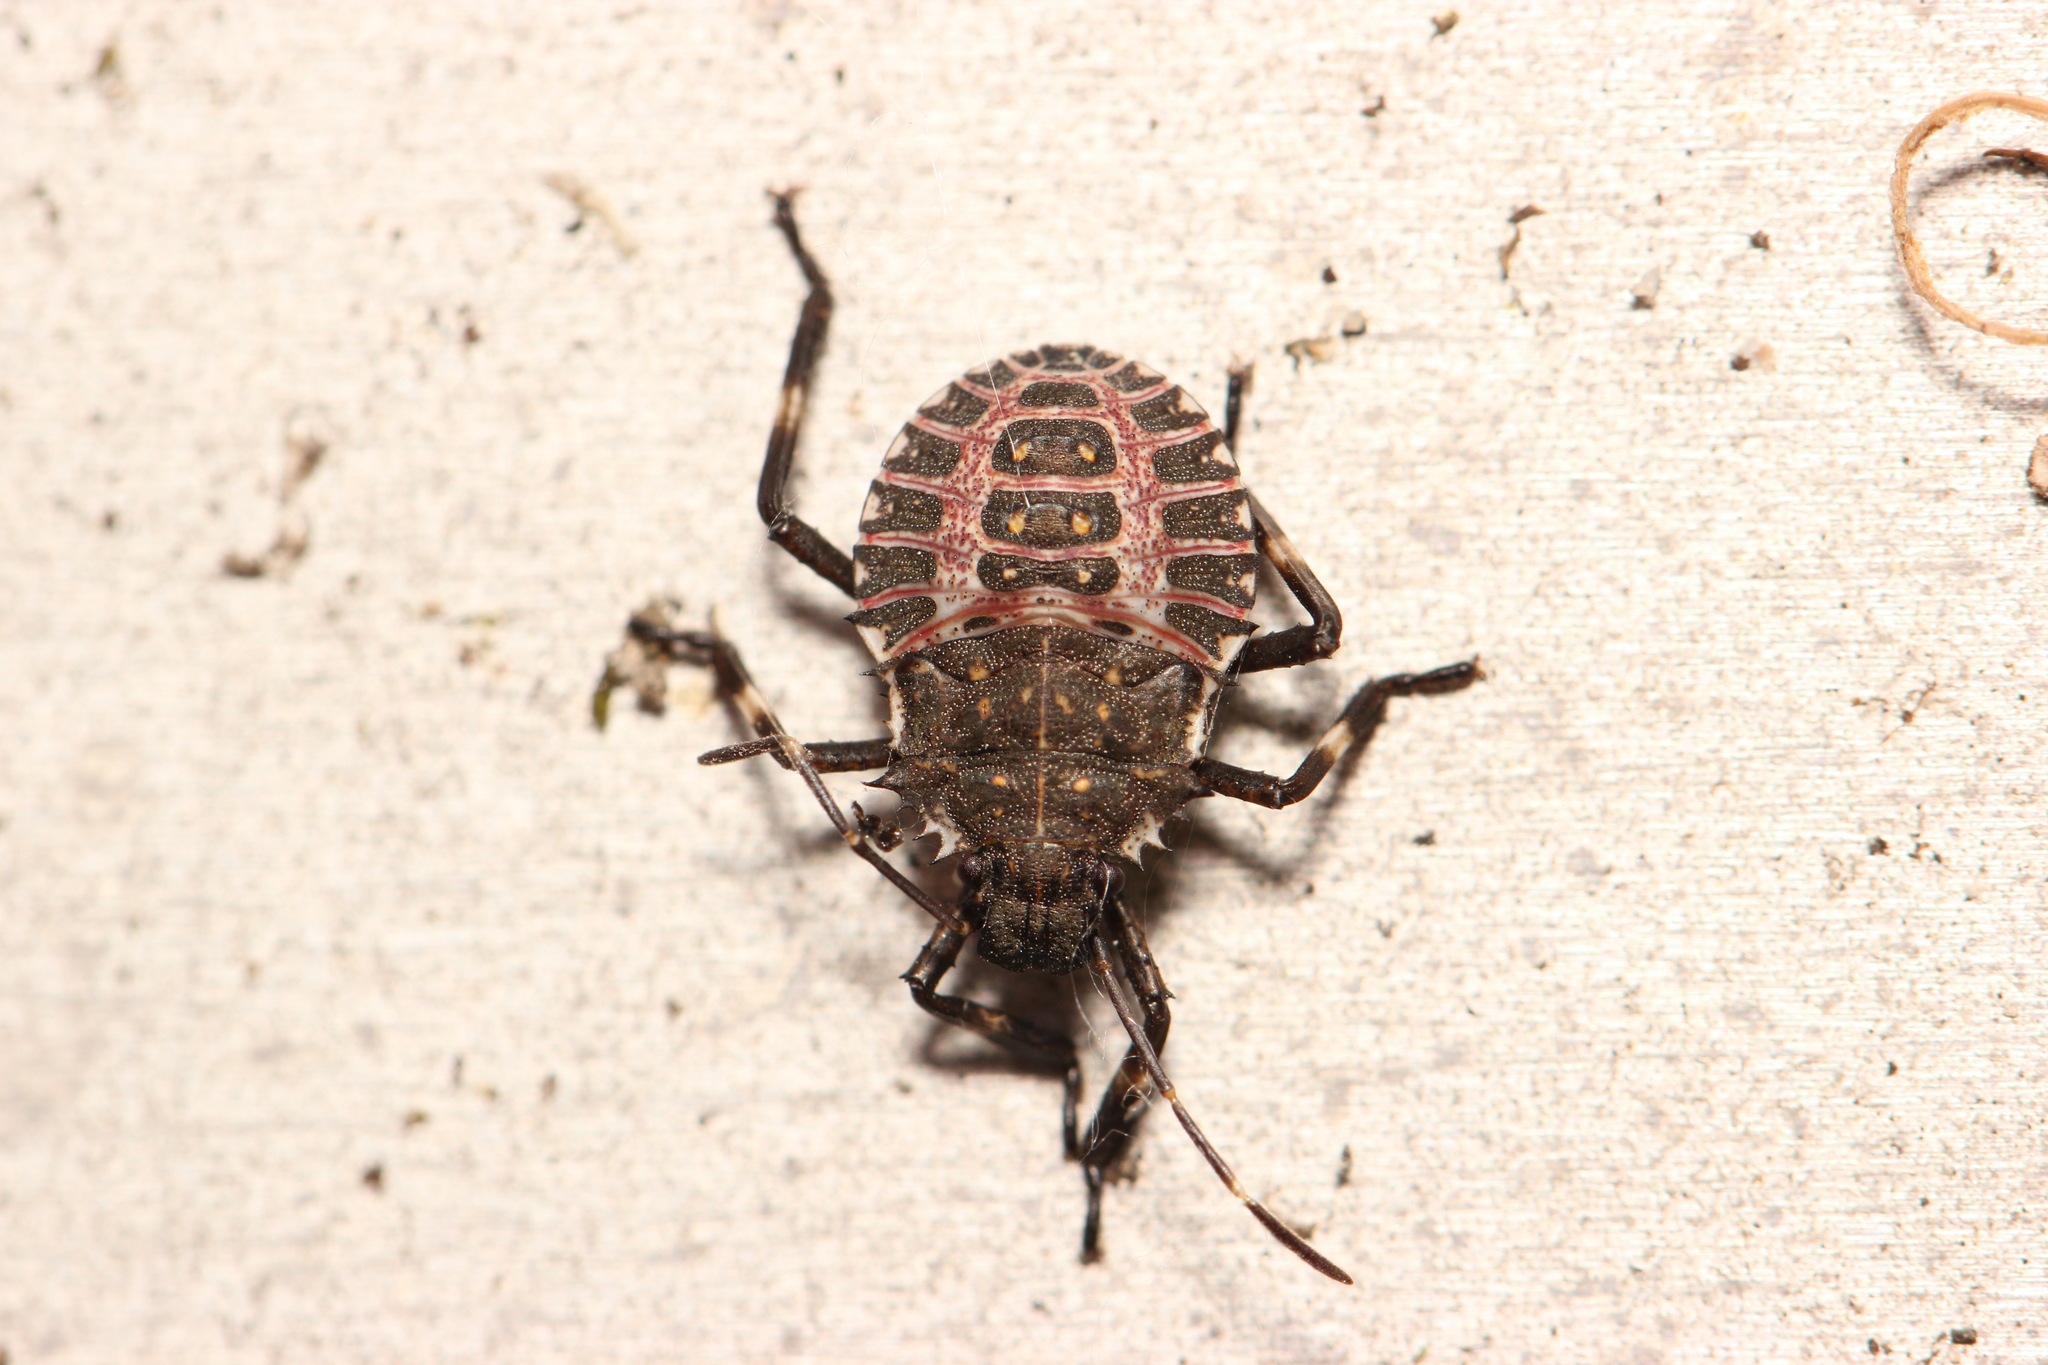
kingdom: Animalia
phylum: Arthropoda
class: Insecta
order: Hemiptera
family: Pentatomidae
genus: Halyomorpha
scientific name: Halyomorpha halys
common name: Brown marmorated stink bug
